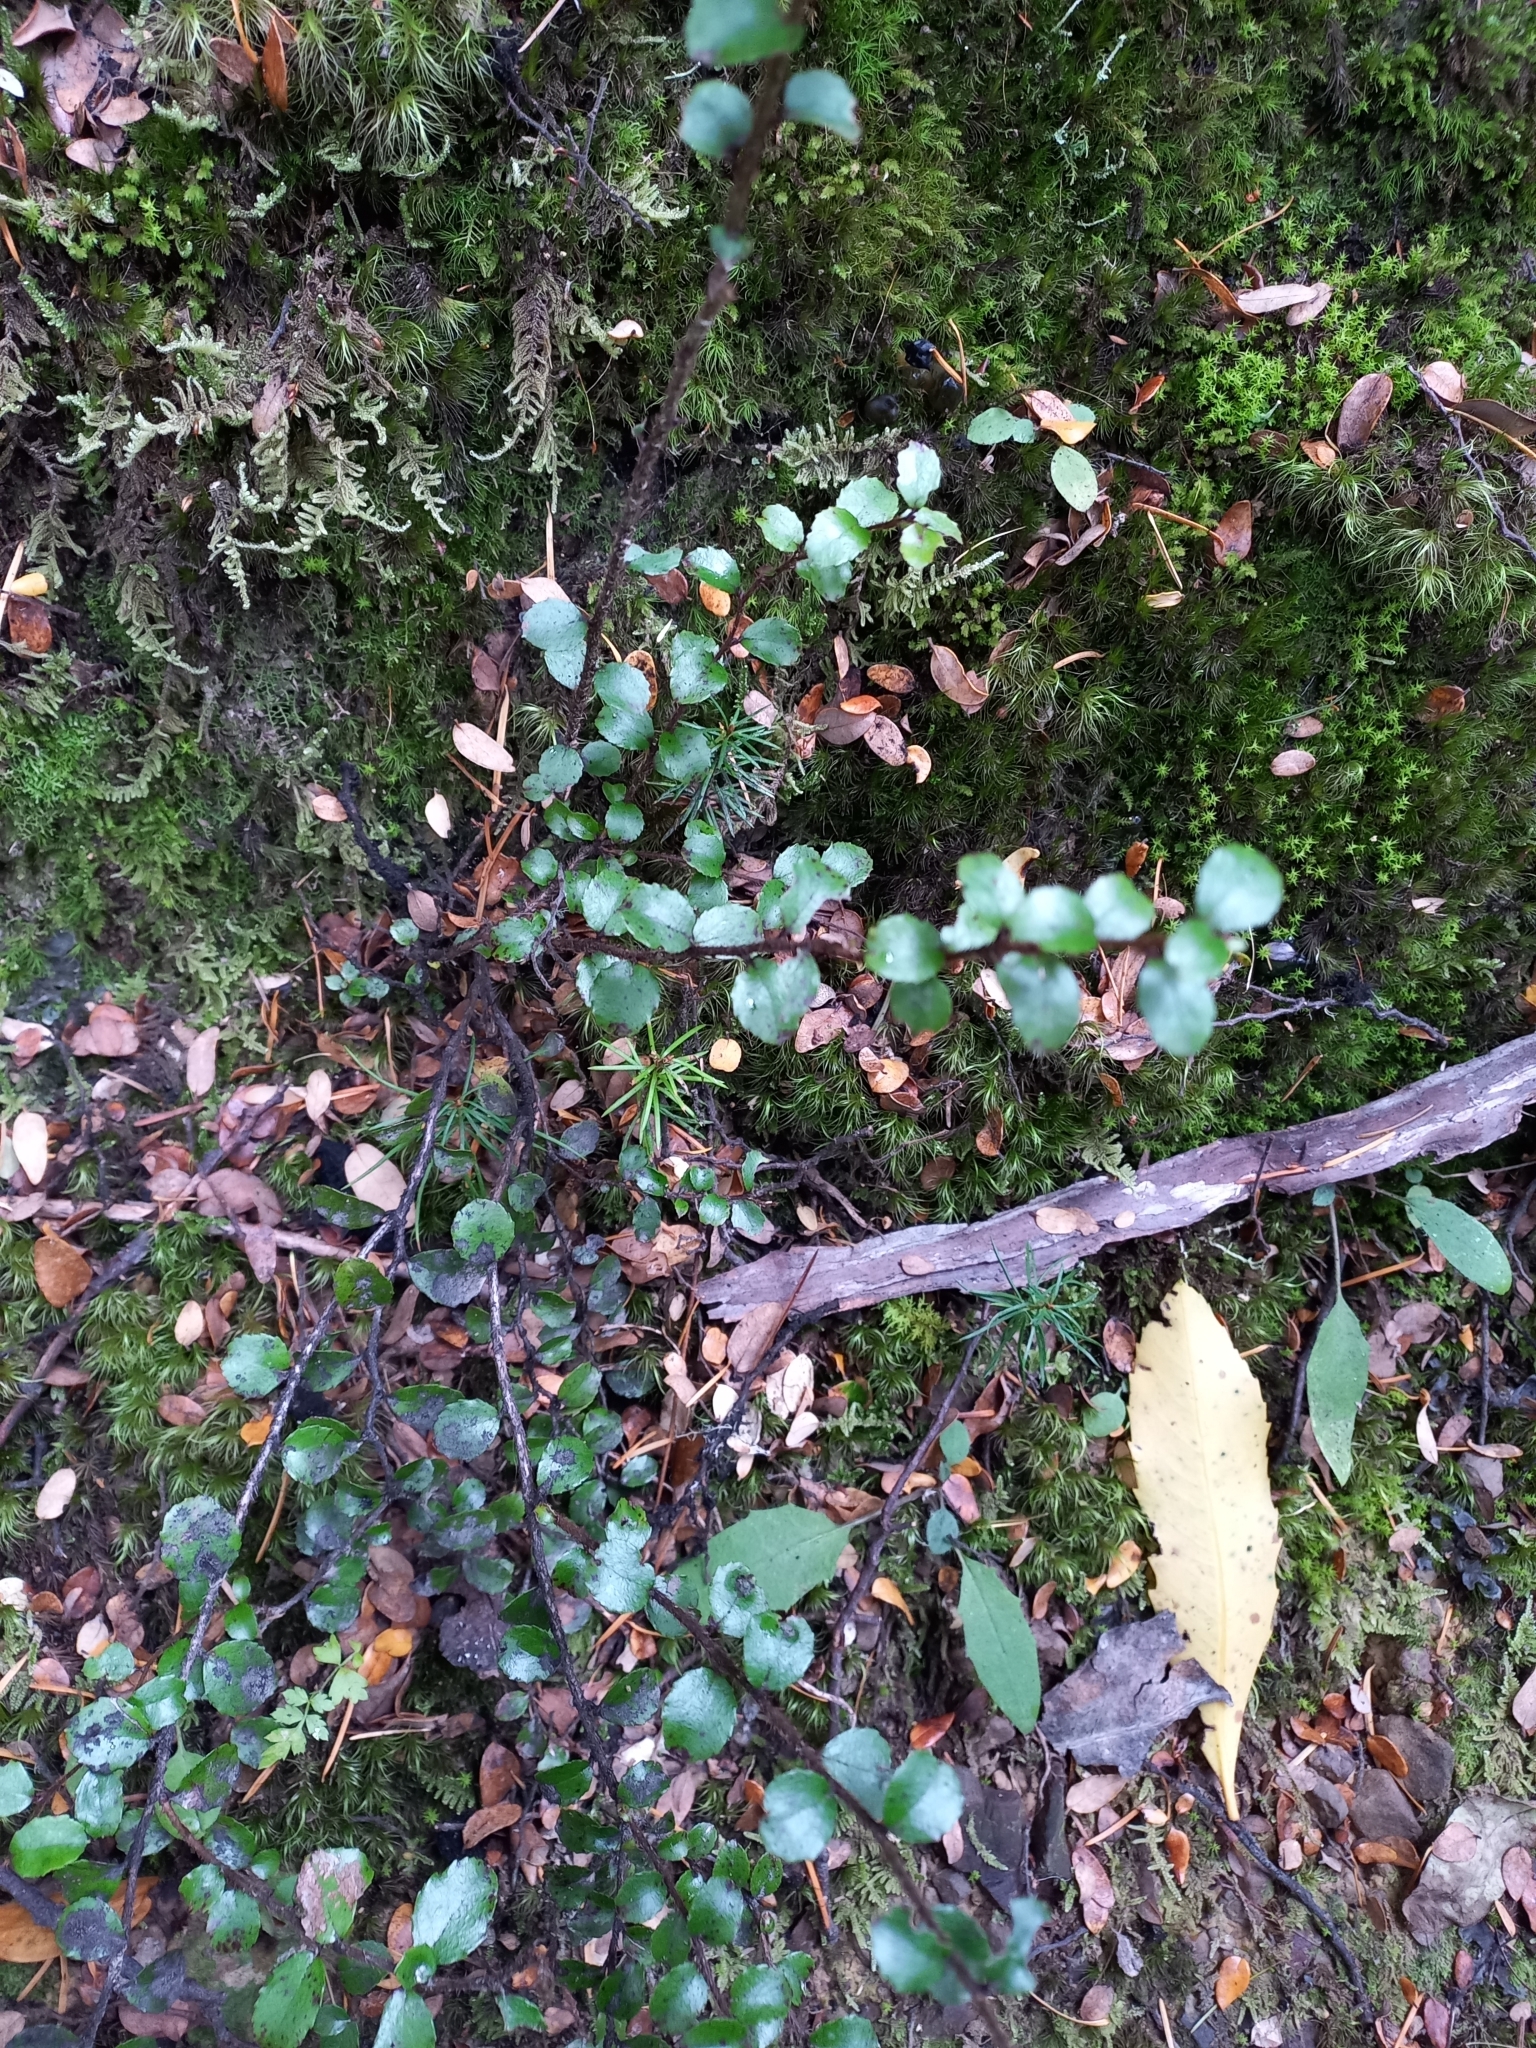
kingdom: Plantae
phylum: Tracheophyta
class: Magnoliopsida
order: Ericales
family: Ericaceae
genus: Gaultheria
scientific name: Gaultheria antipoda
